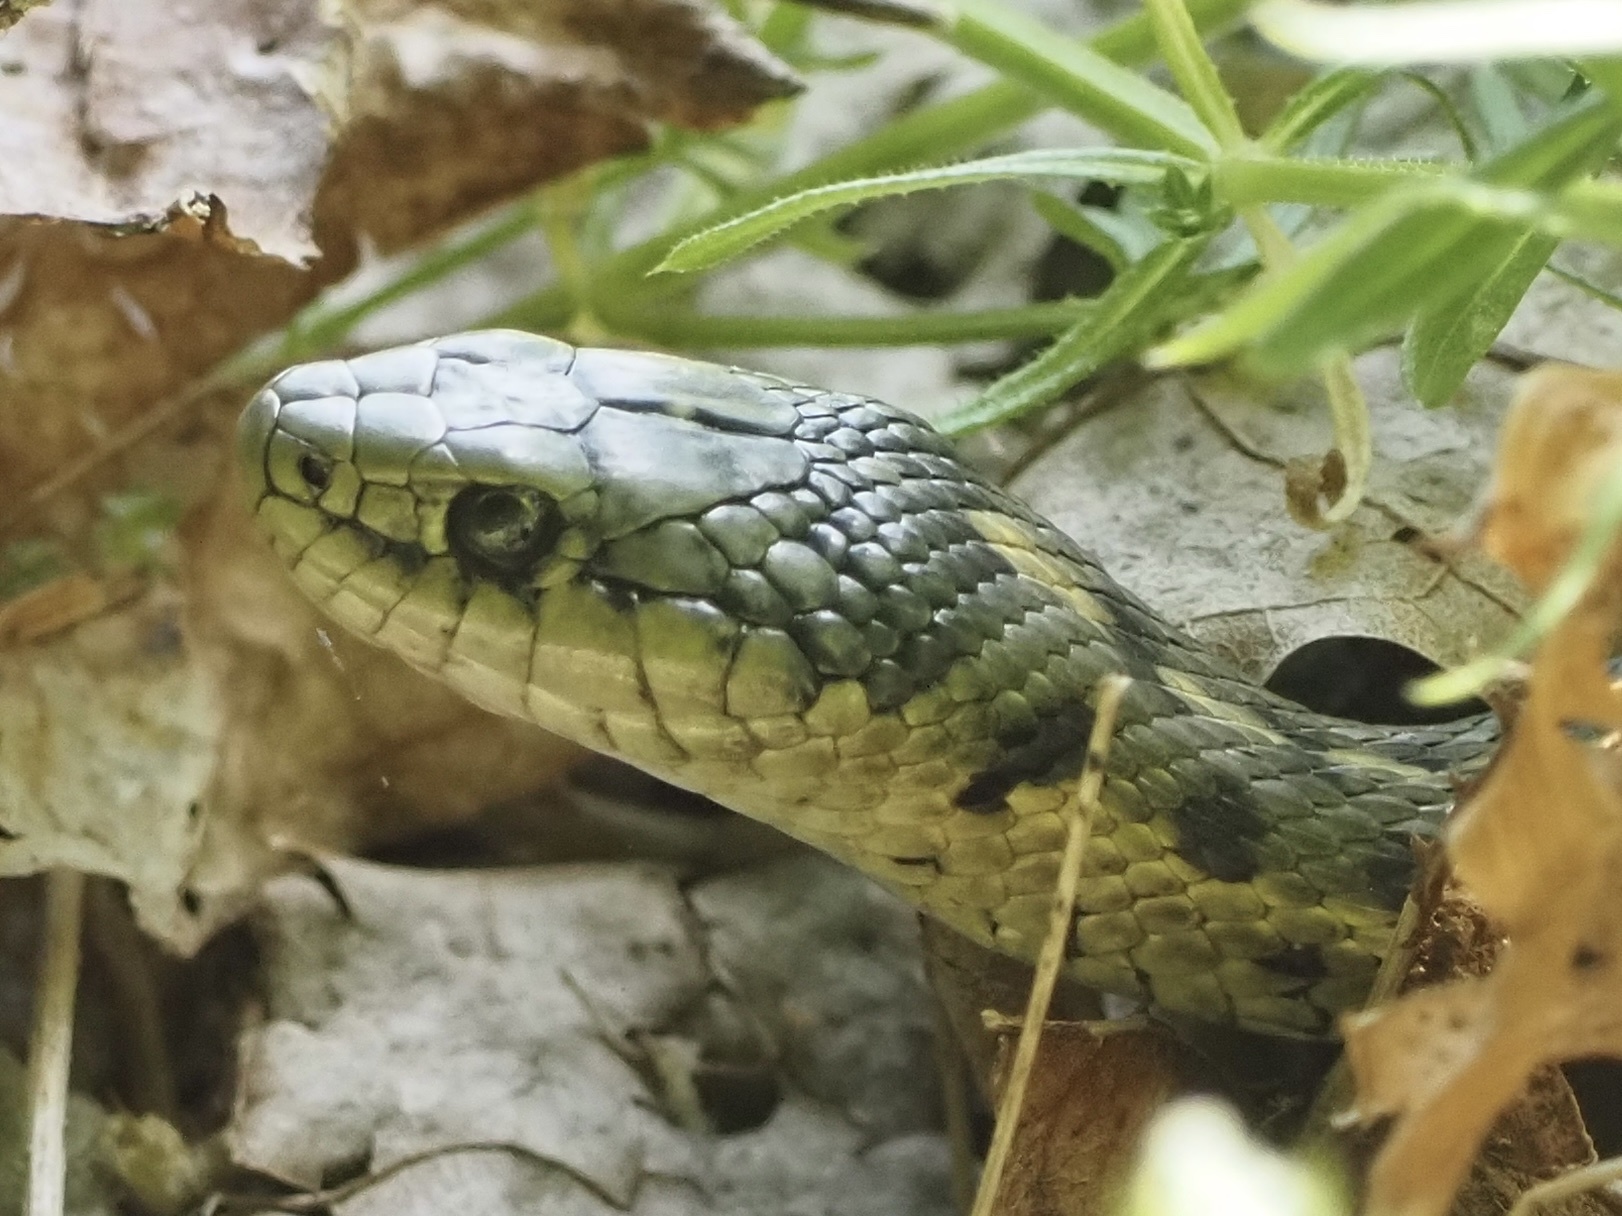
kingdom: Animalia
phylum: Chordata
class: Squamata
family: Colubridae
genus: Thamnophis
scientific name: Thamnophis elegans
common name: Western terrestrial garter snake
